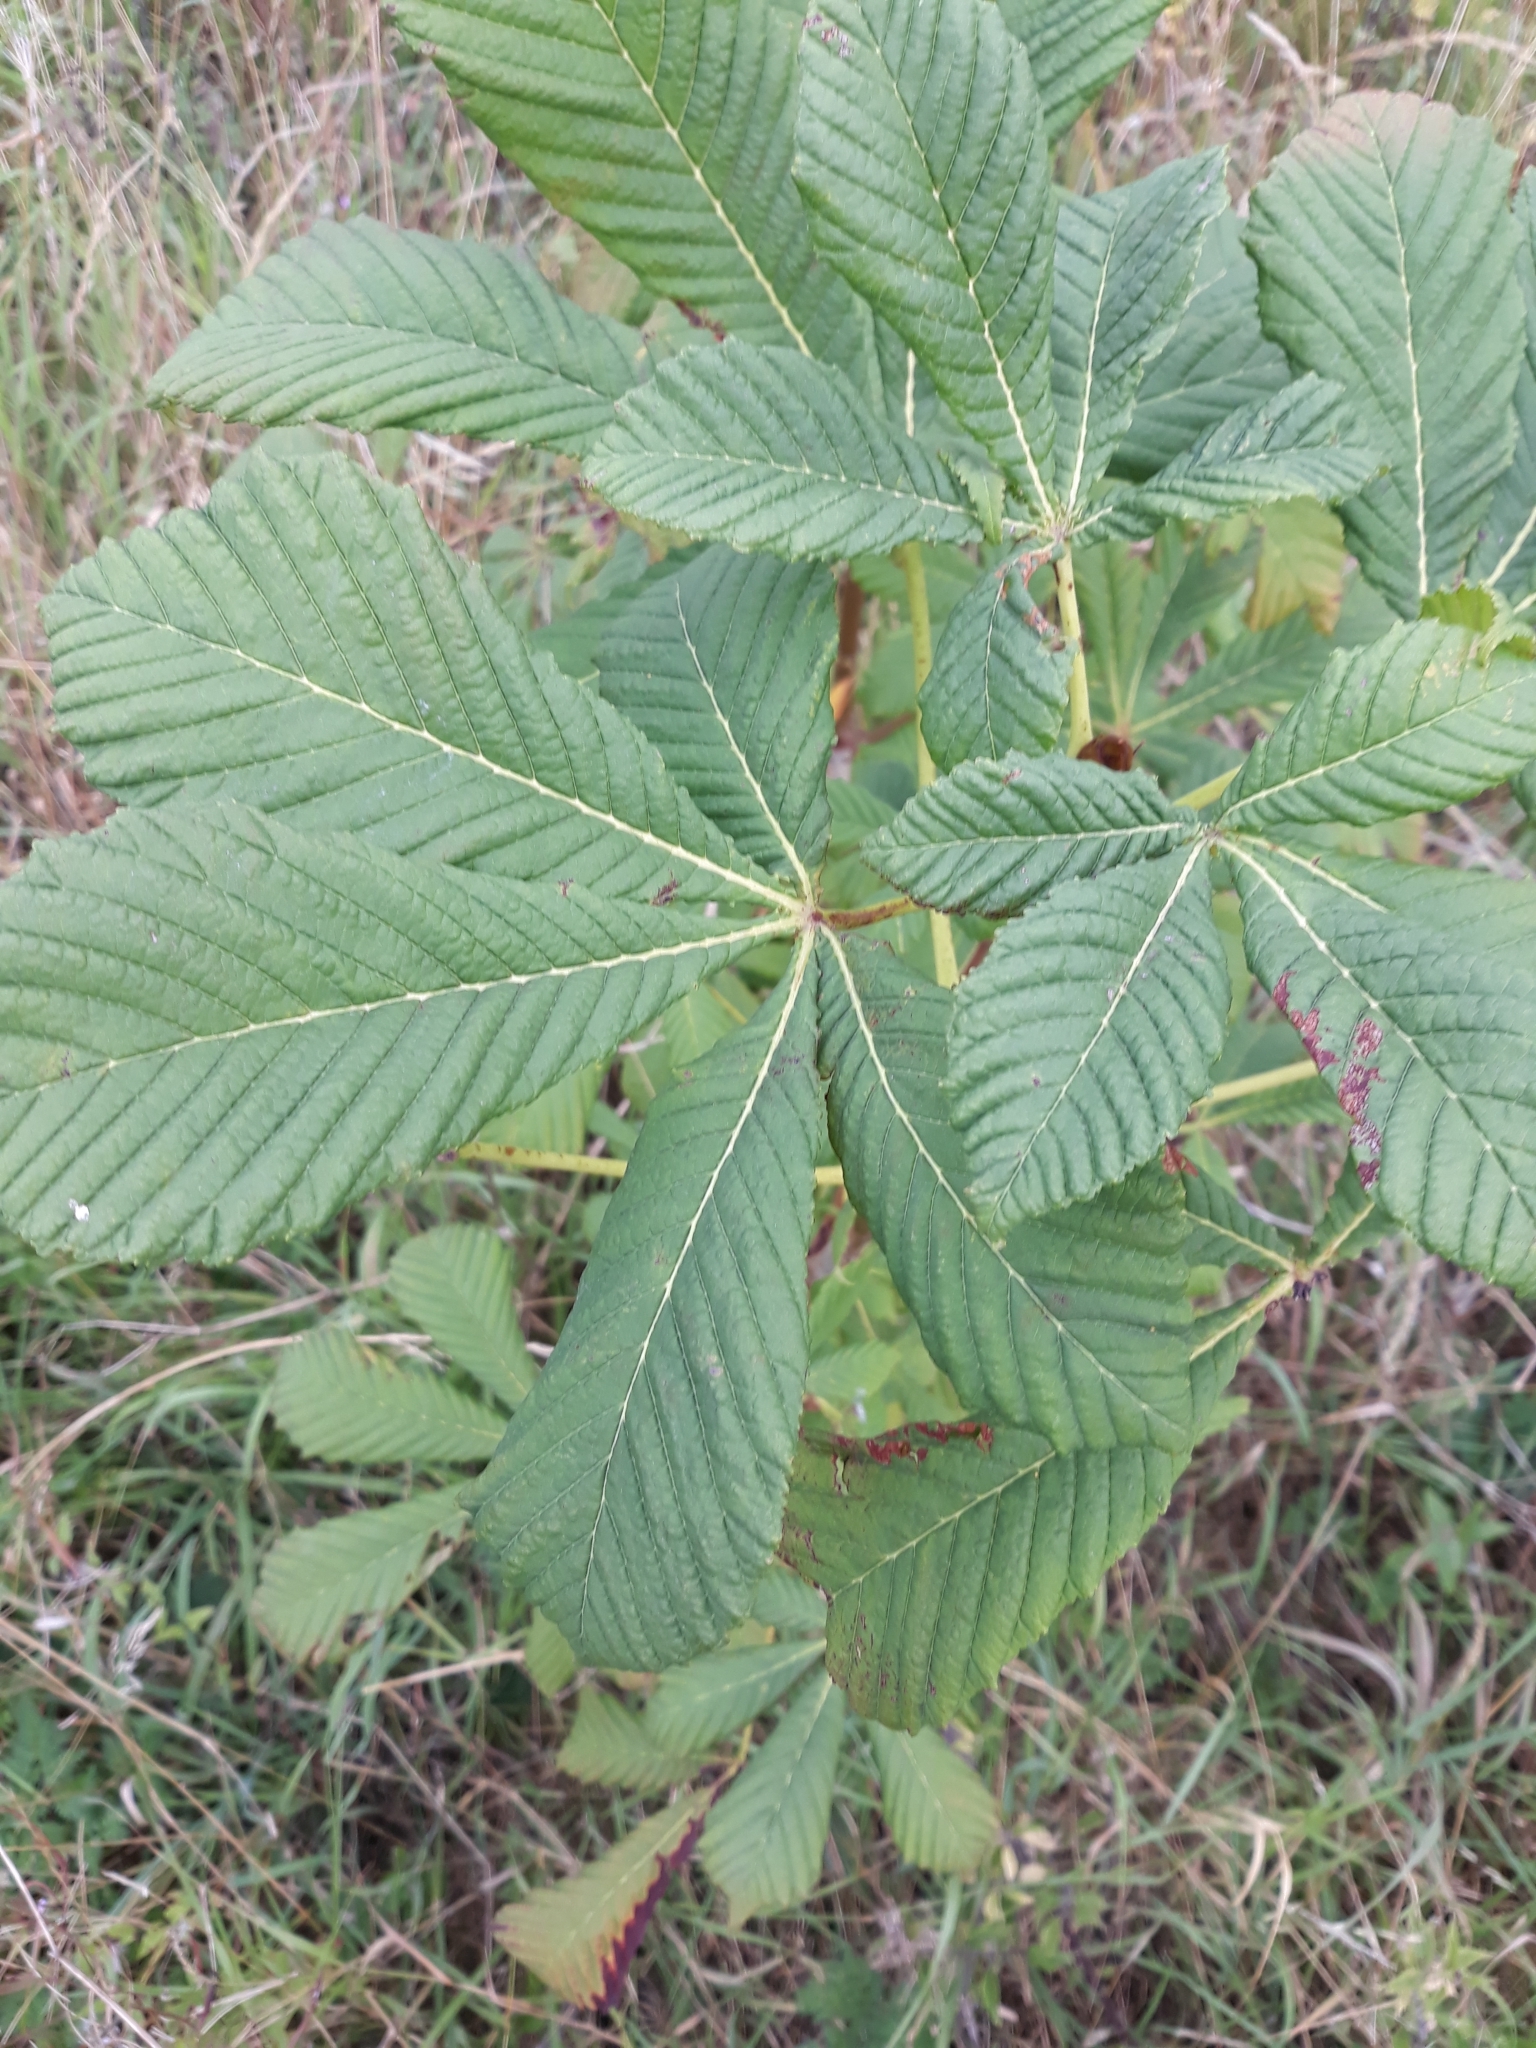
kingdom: Plantae
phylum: Tracheophyta
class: Magnoliopsida
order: Sapindales
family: Sapindaceae
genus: Aesculus
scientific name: Aesculus hippocastanum
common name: Horse-chestnut
